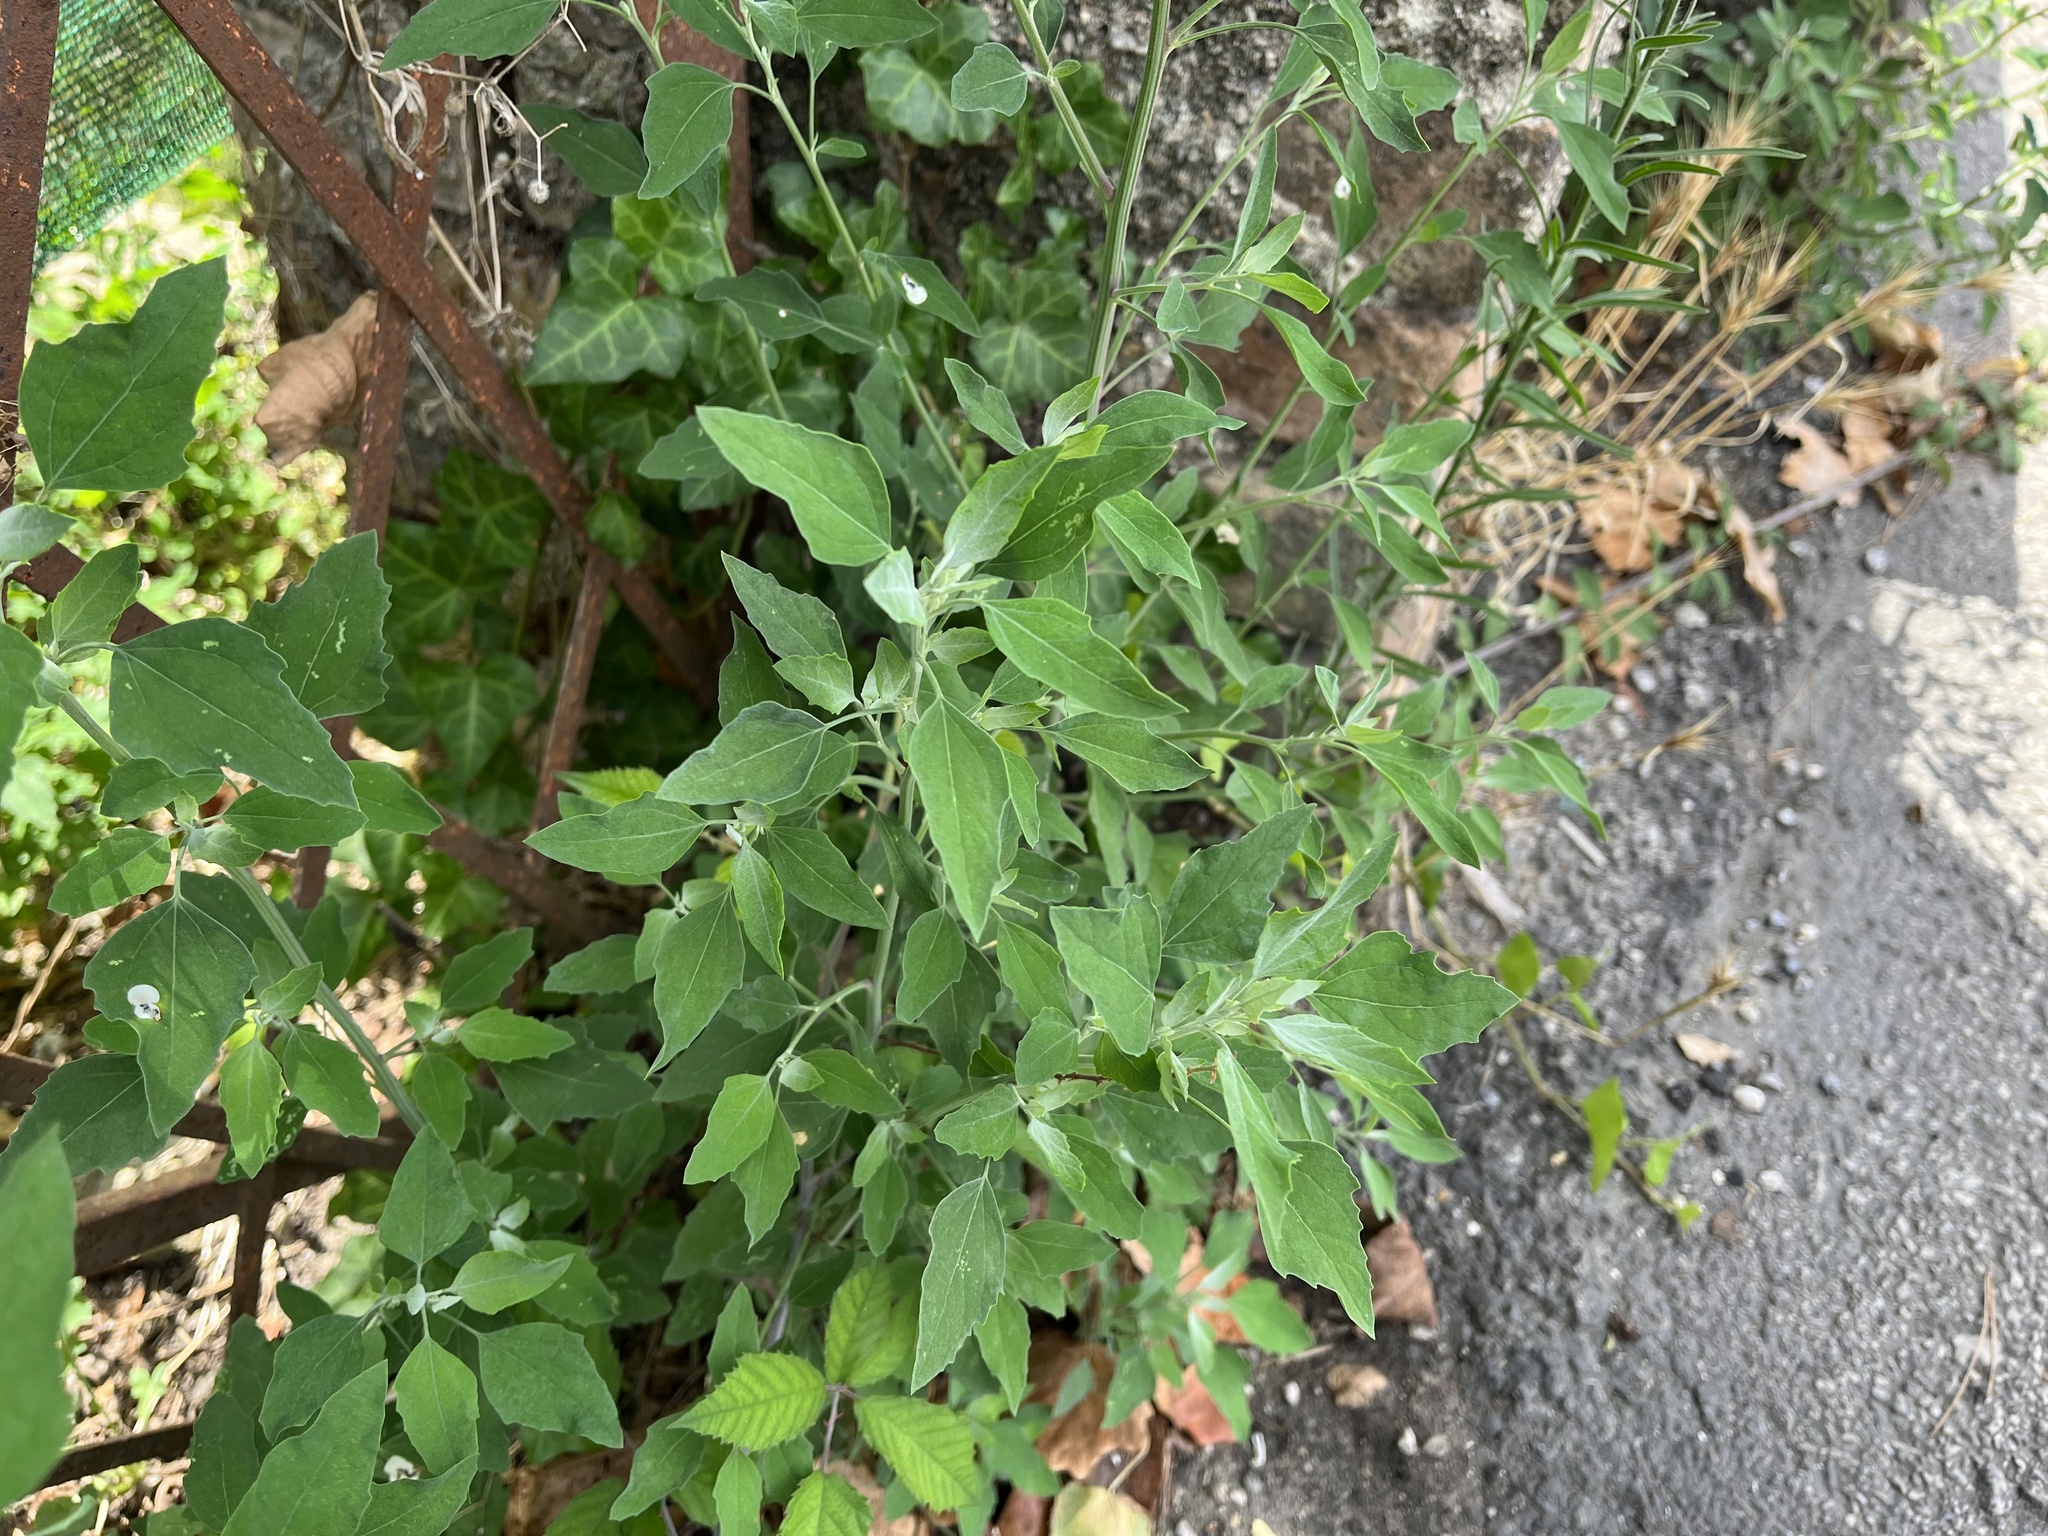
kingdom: Plantae
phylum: Tracheophyta
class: Magnoliopsida
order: Caryophyllales
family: Amaranthaceae
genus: Chenopodium
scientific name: Chenopodium album
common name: Fat-hen
